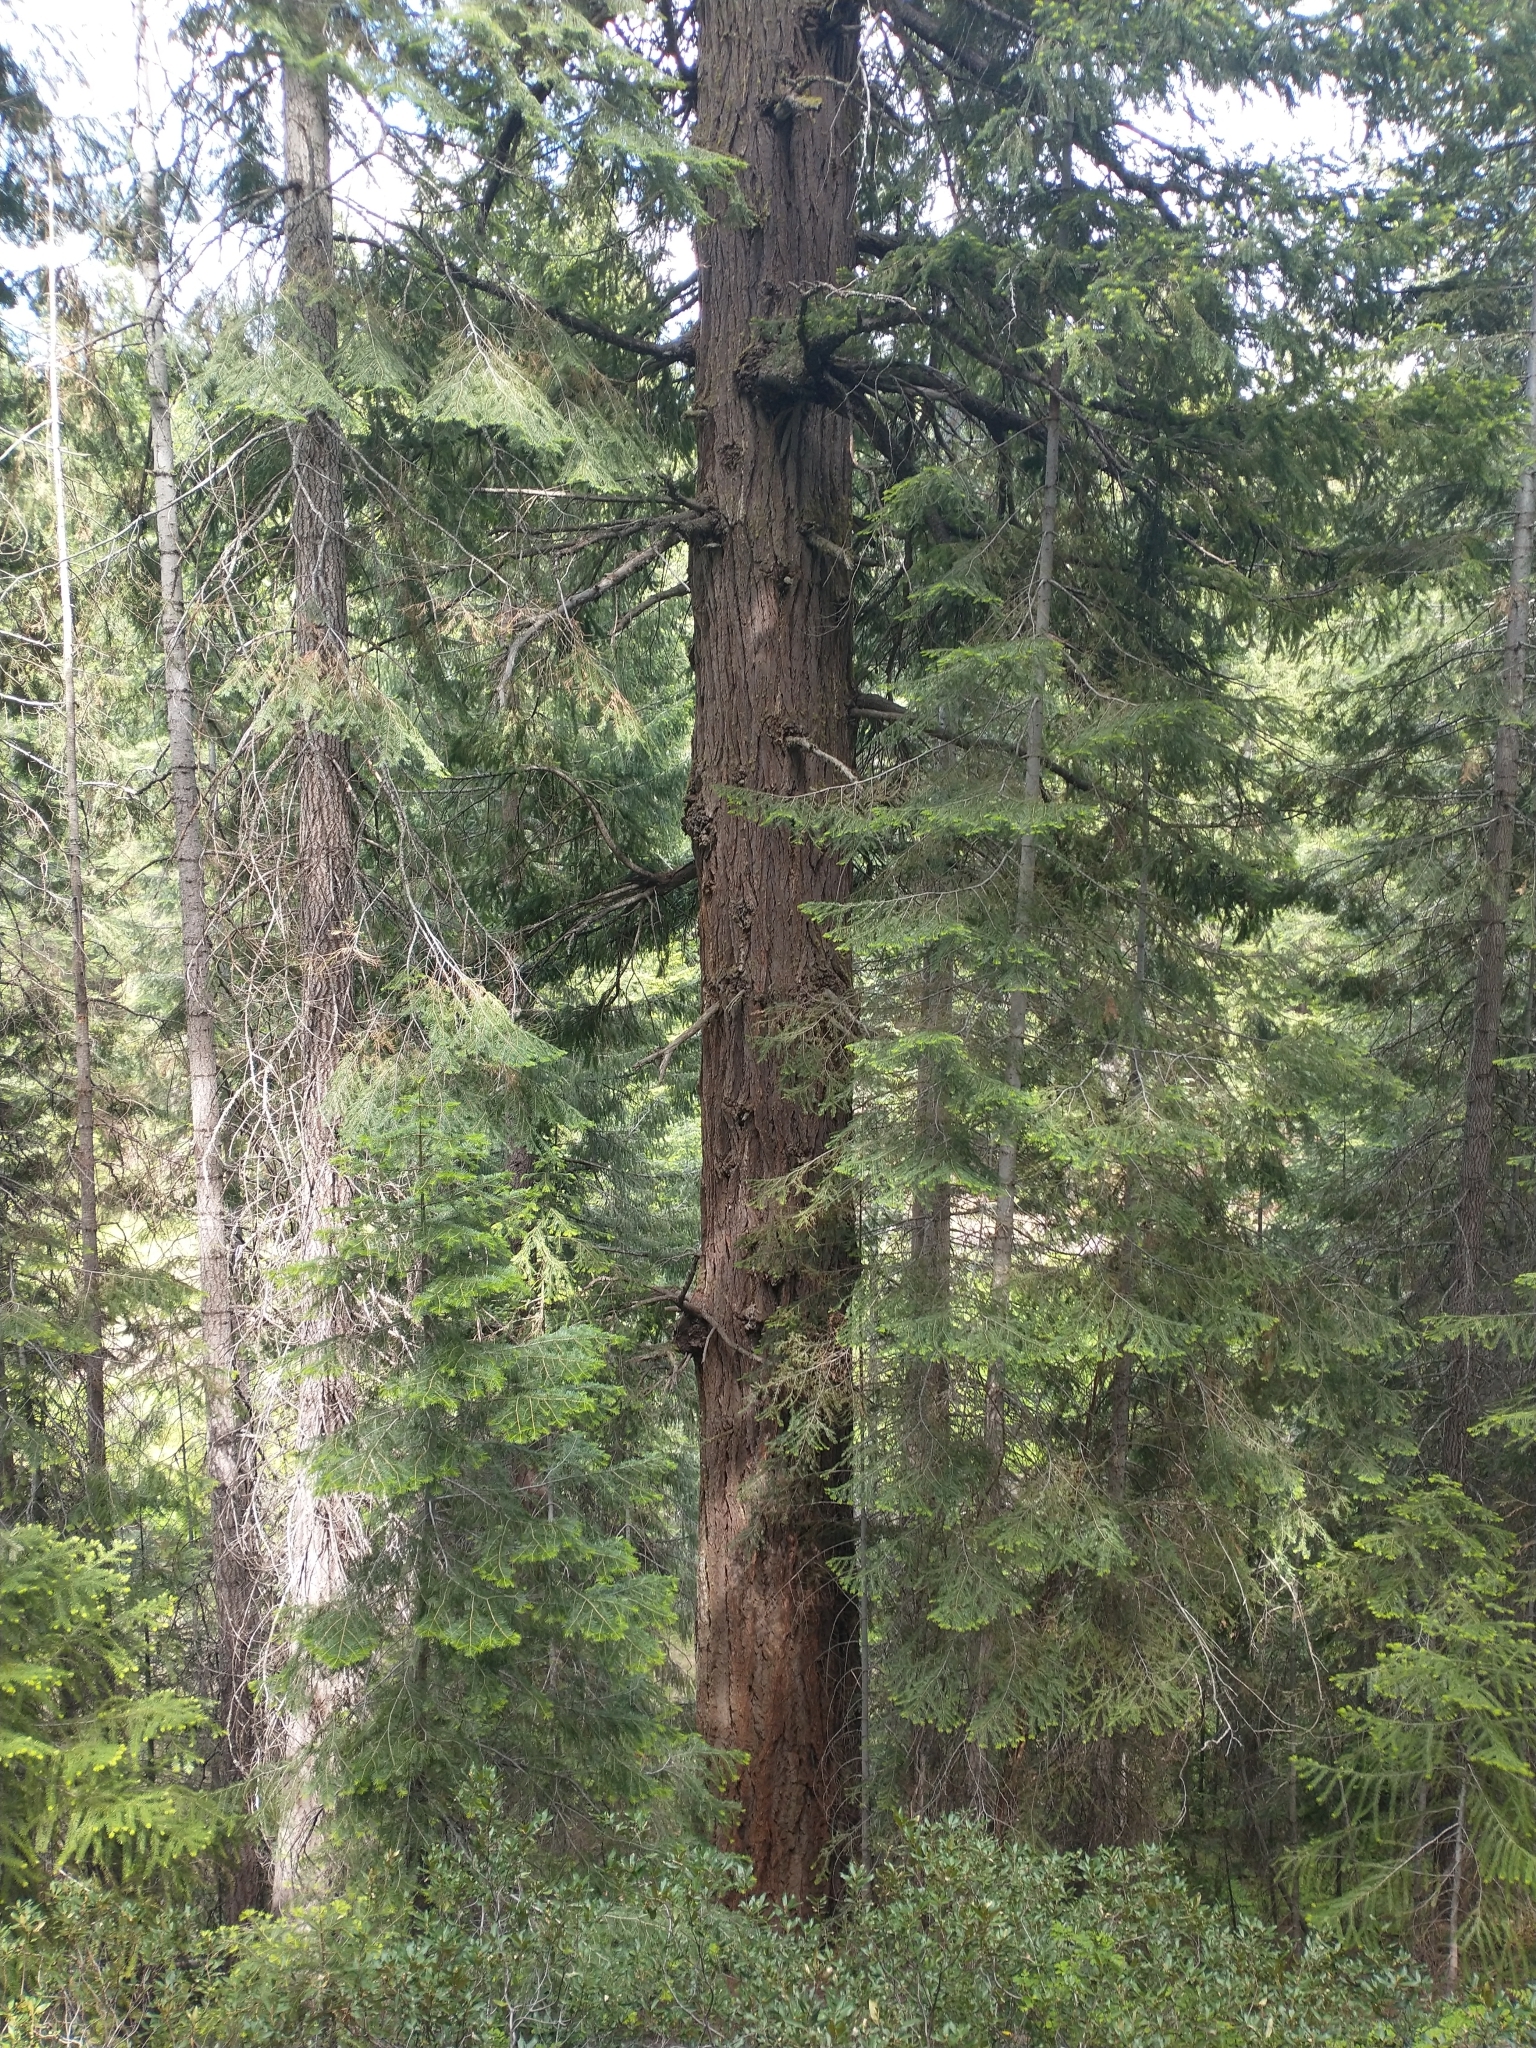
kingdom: Plantae
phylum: Tracheophyta
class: Pinopsida
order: Pinales
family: Pinaceae
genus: Pseudotsuga
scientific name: Pseudotsuga menziesii
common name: Douglas fir
